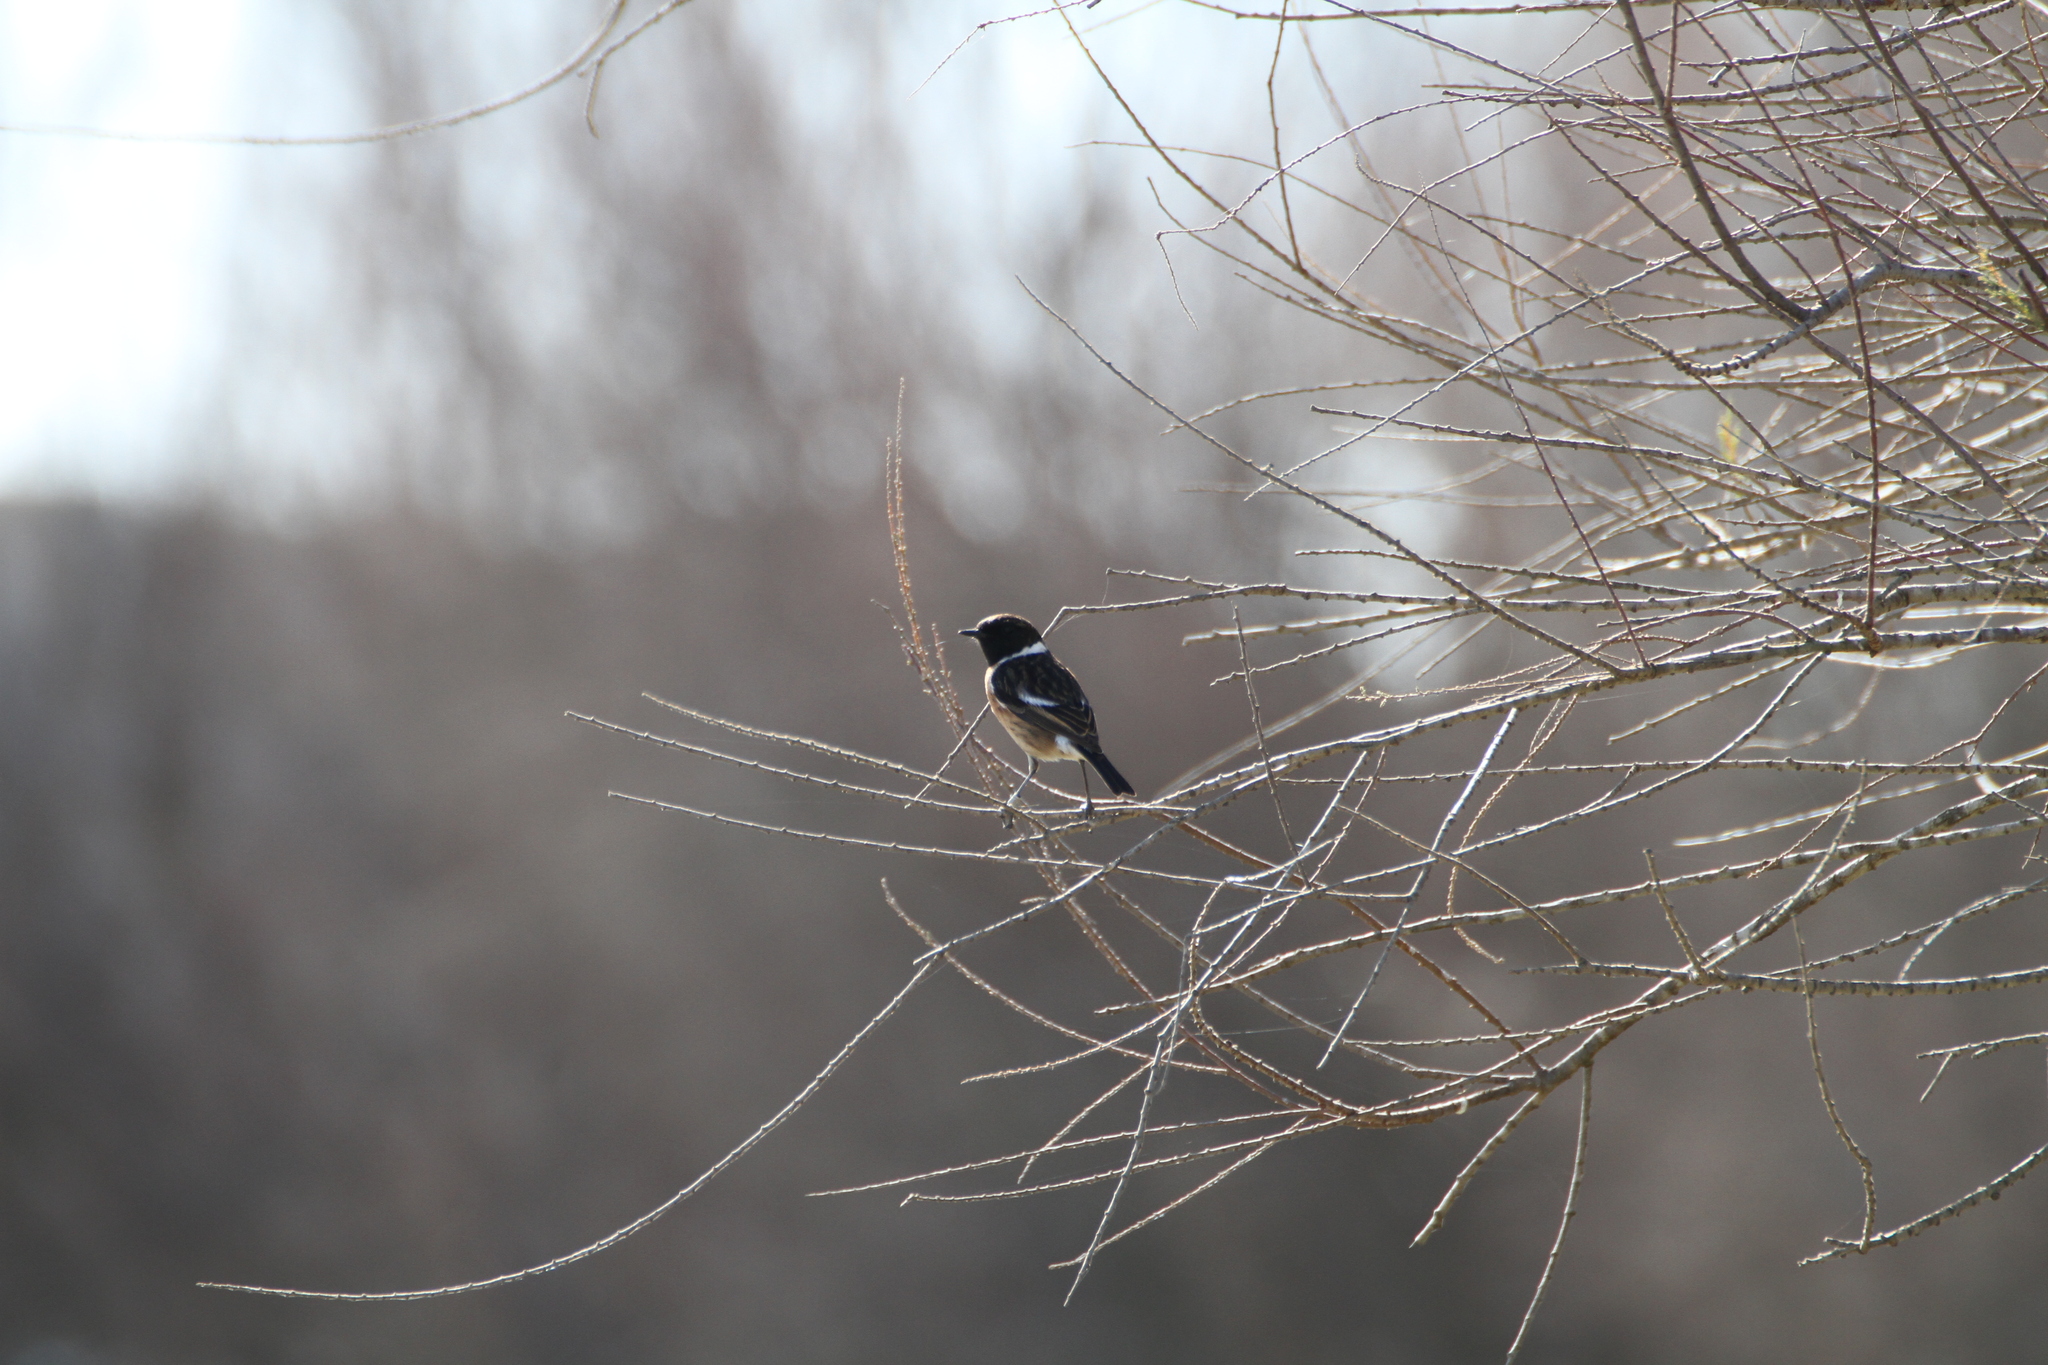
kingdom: Animalia
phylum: Chordata
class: Aves
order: Passeriformes
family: Muscicapidae
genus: Saxicola
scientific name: Saxicola rubicola
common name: European stonechat
